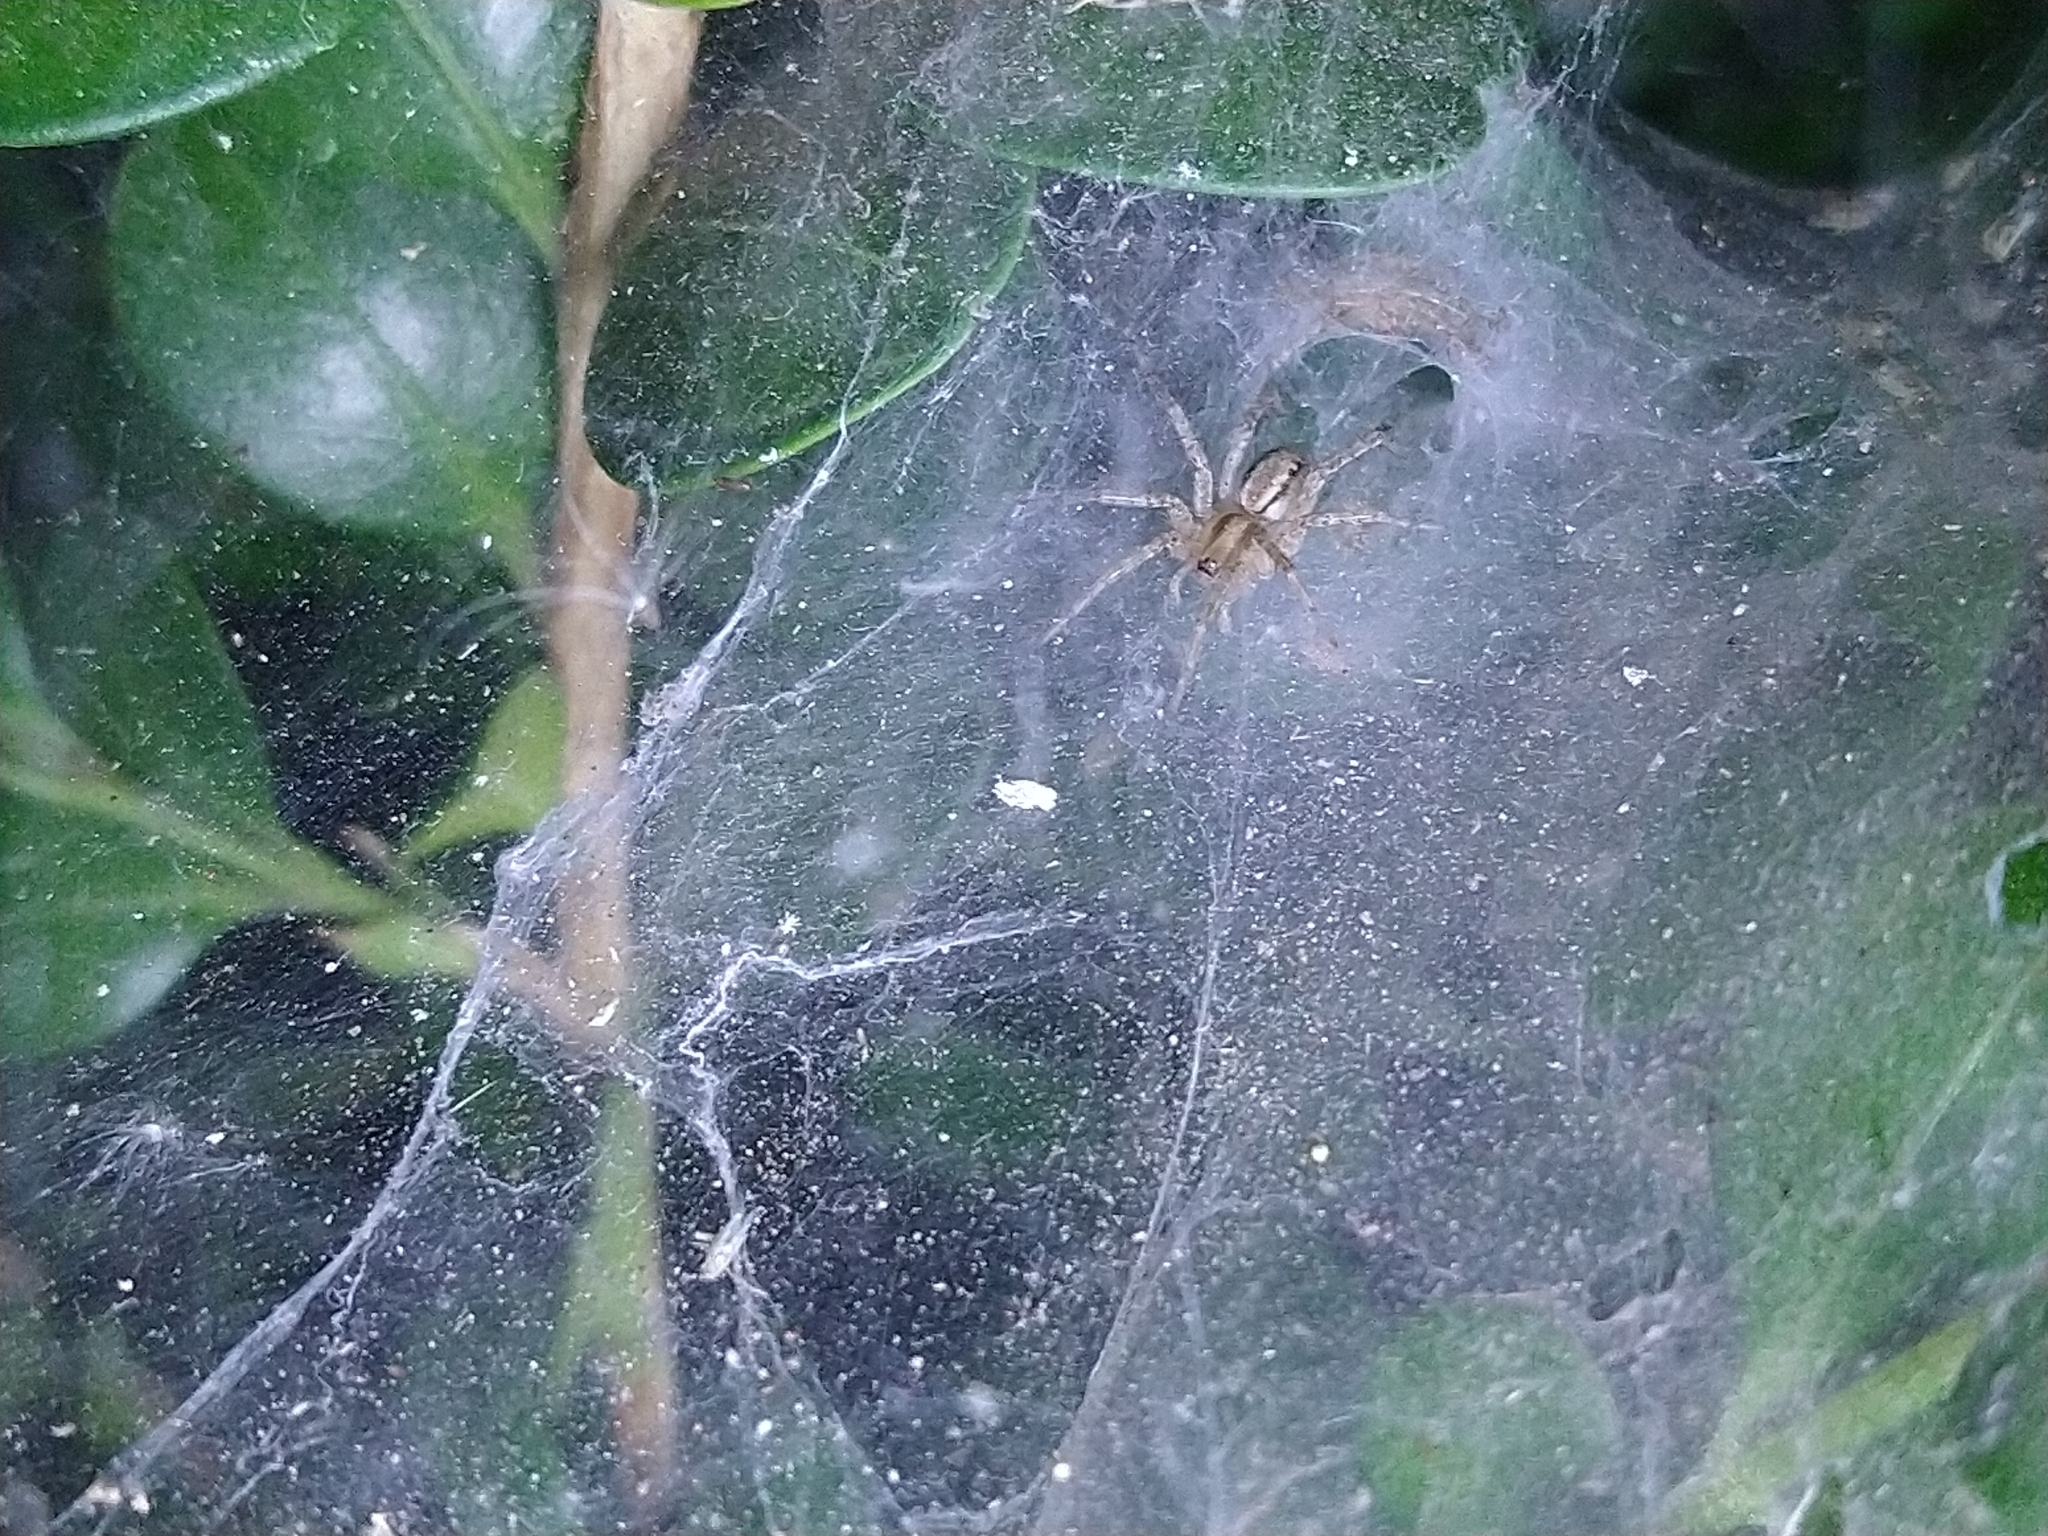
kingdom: Animalia
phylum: Arthropoda
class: Arachnida
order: Araneae
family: Agelenidae
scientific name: Agelenidae
